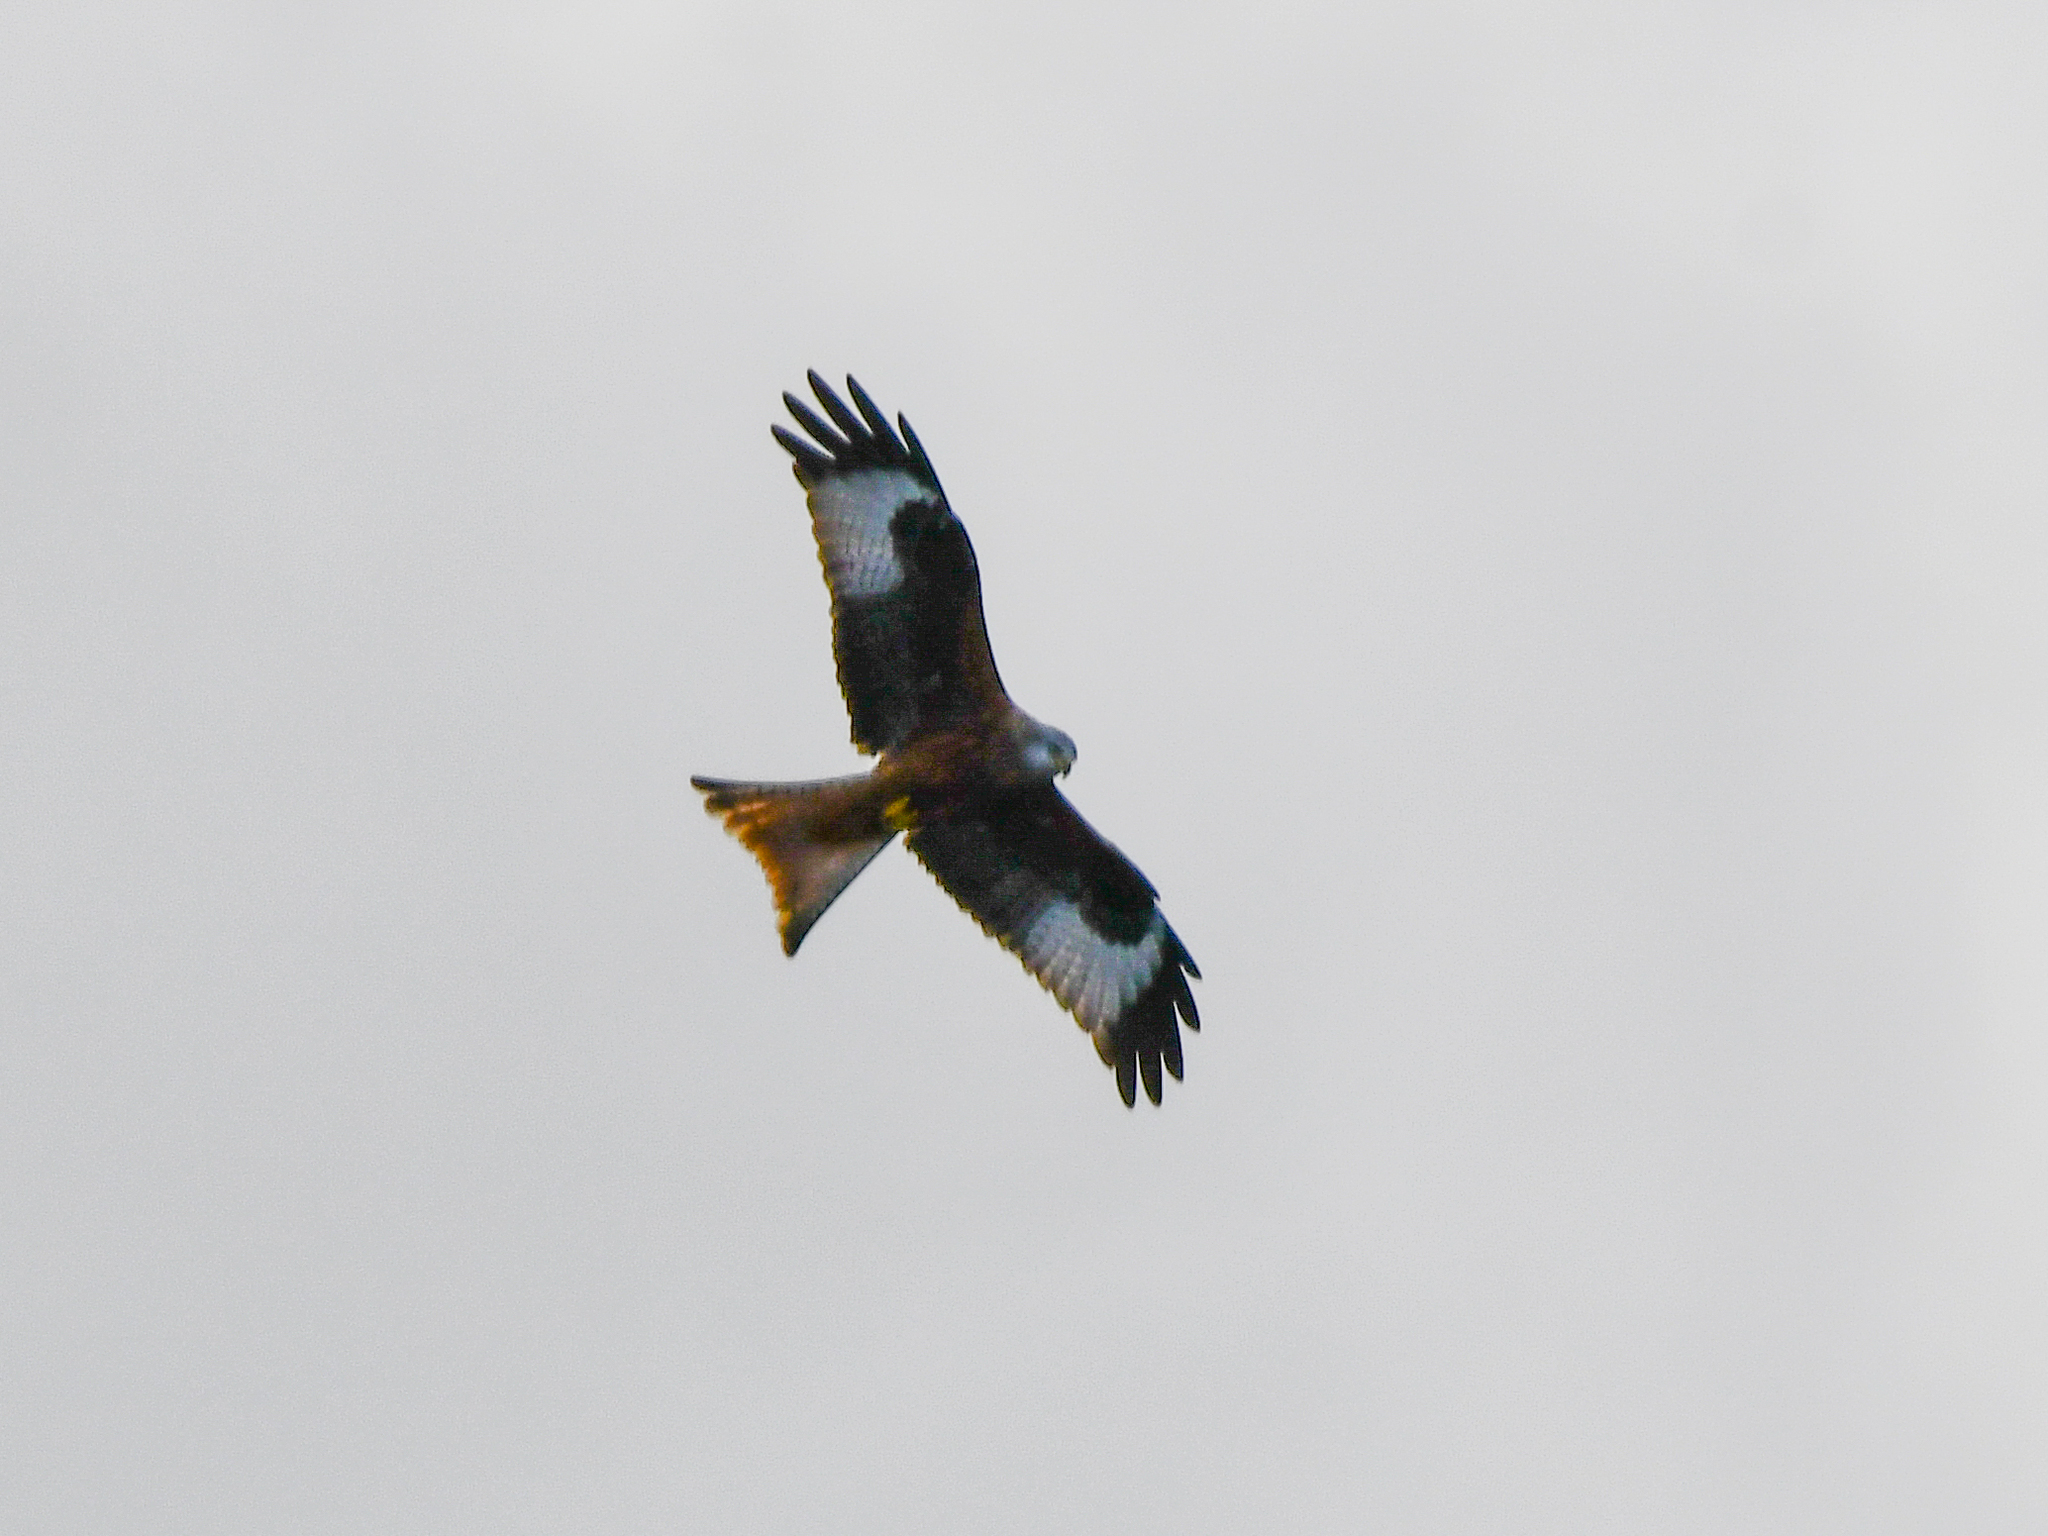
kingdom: Animalia
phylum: Chordata
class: Aves
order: Accipitriformes
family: Accipitridae
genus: Milvus
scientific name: Milvus milvus
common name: Red kite
